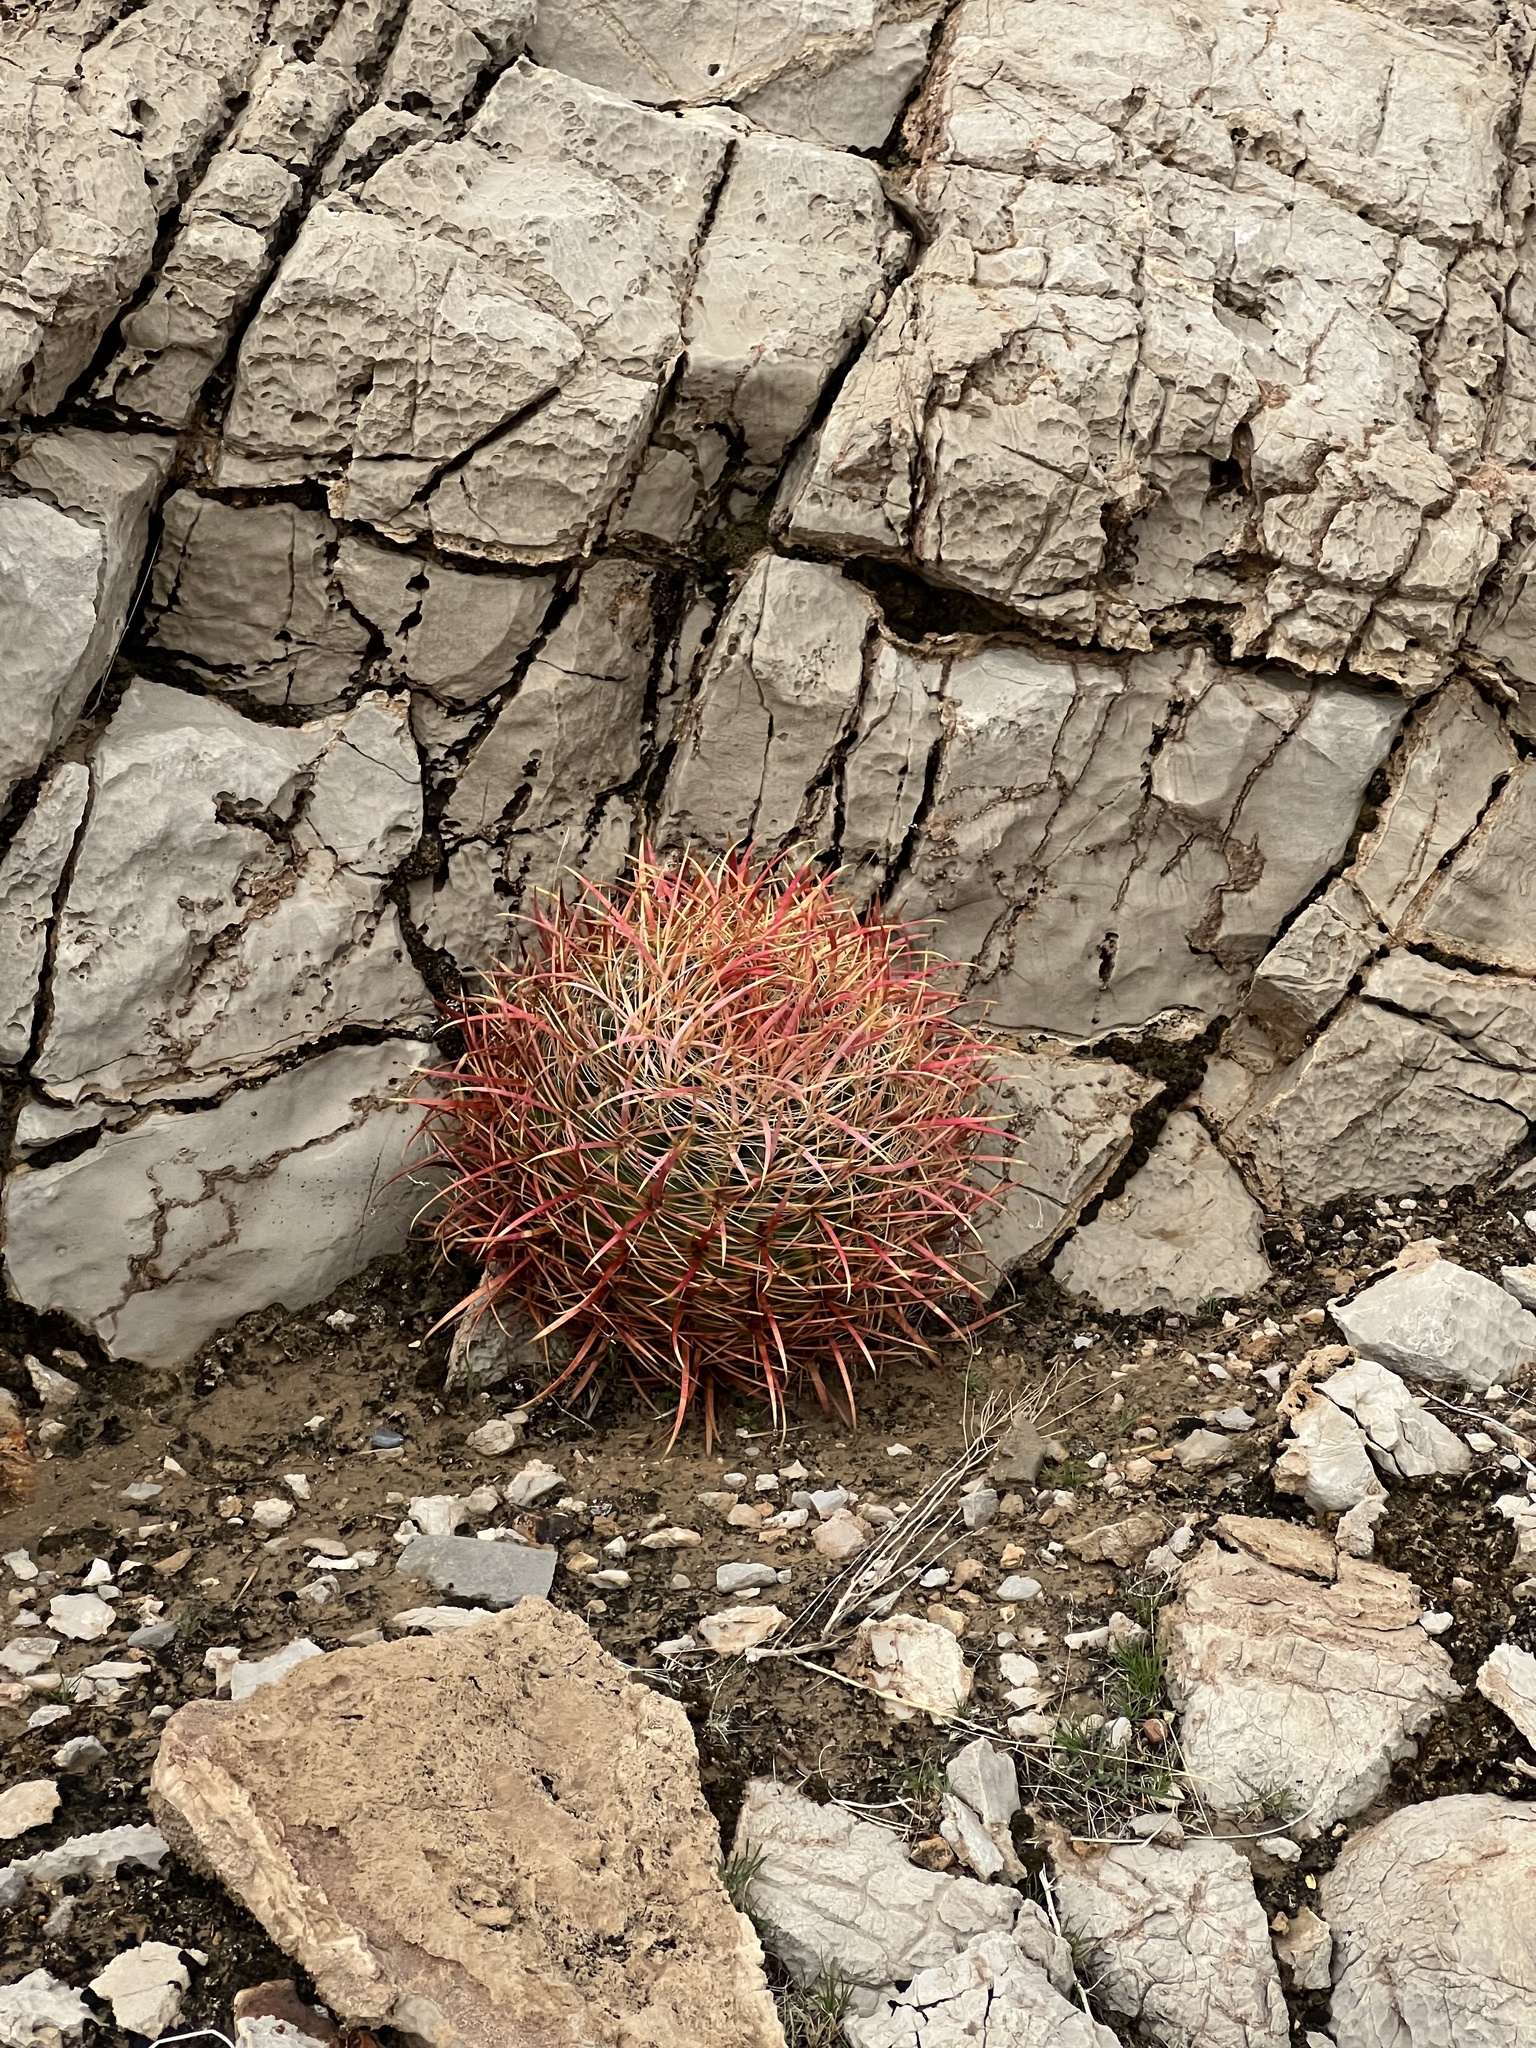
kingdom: Plantae
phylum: Tracheophyta
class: Magnoliopsida
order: Caryophyllales
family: Cactaceae
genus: Ferocactus
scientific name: Ferocactus cylindraceus
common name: California barrel cactus
